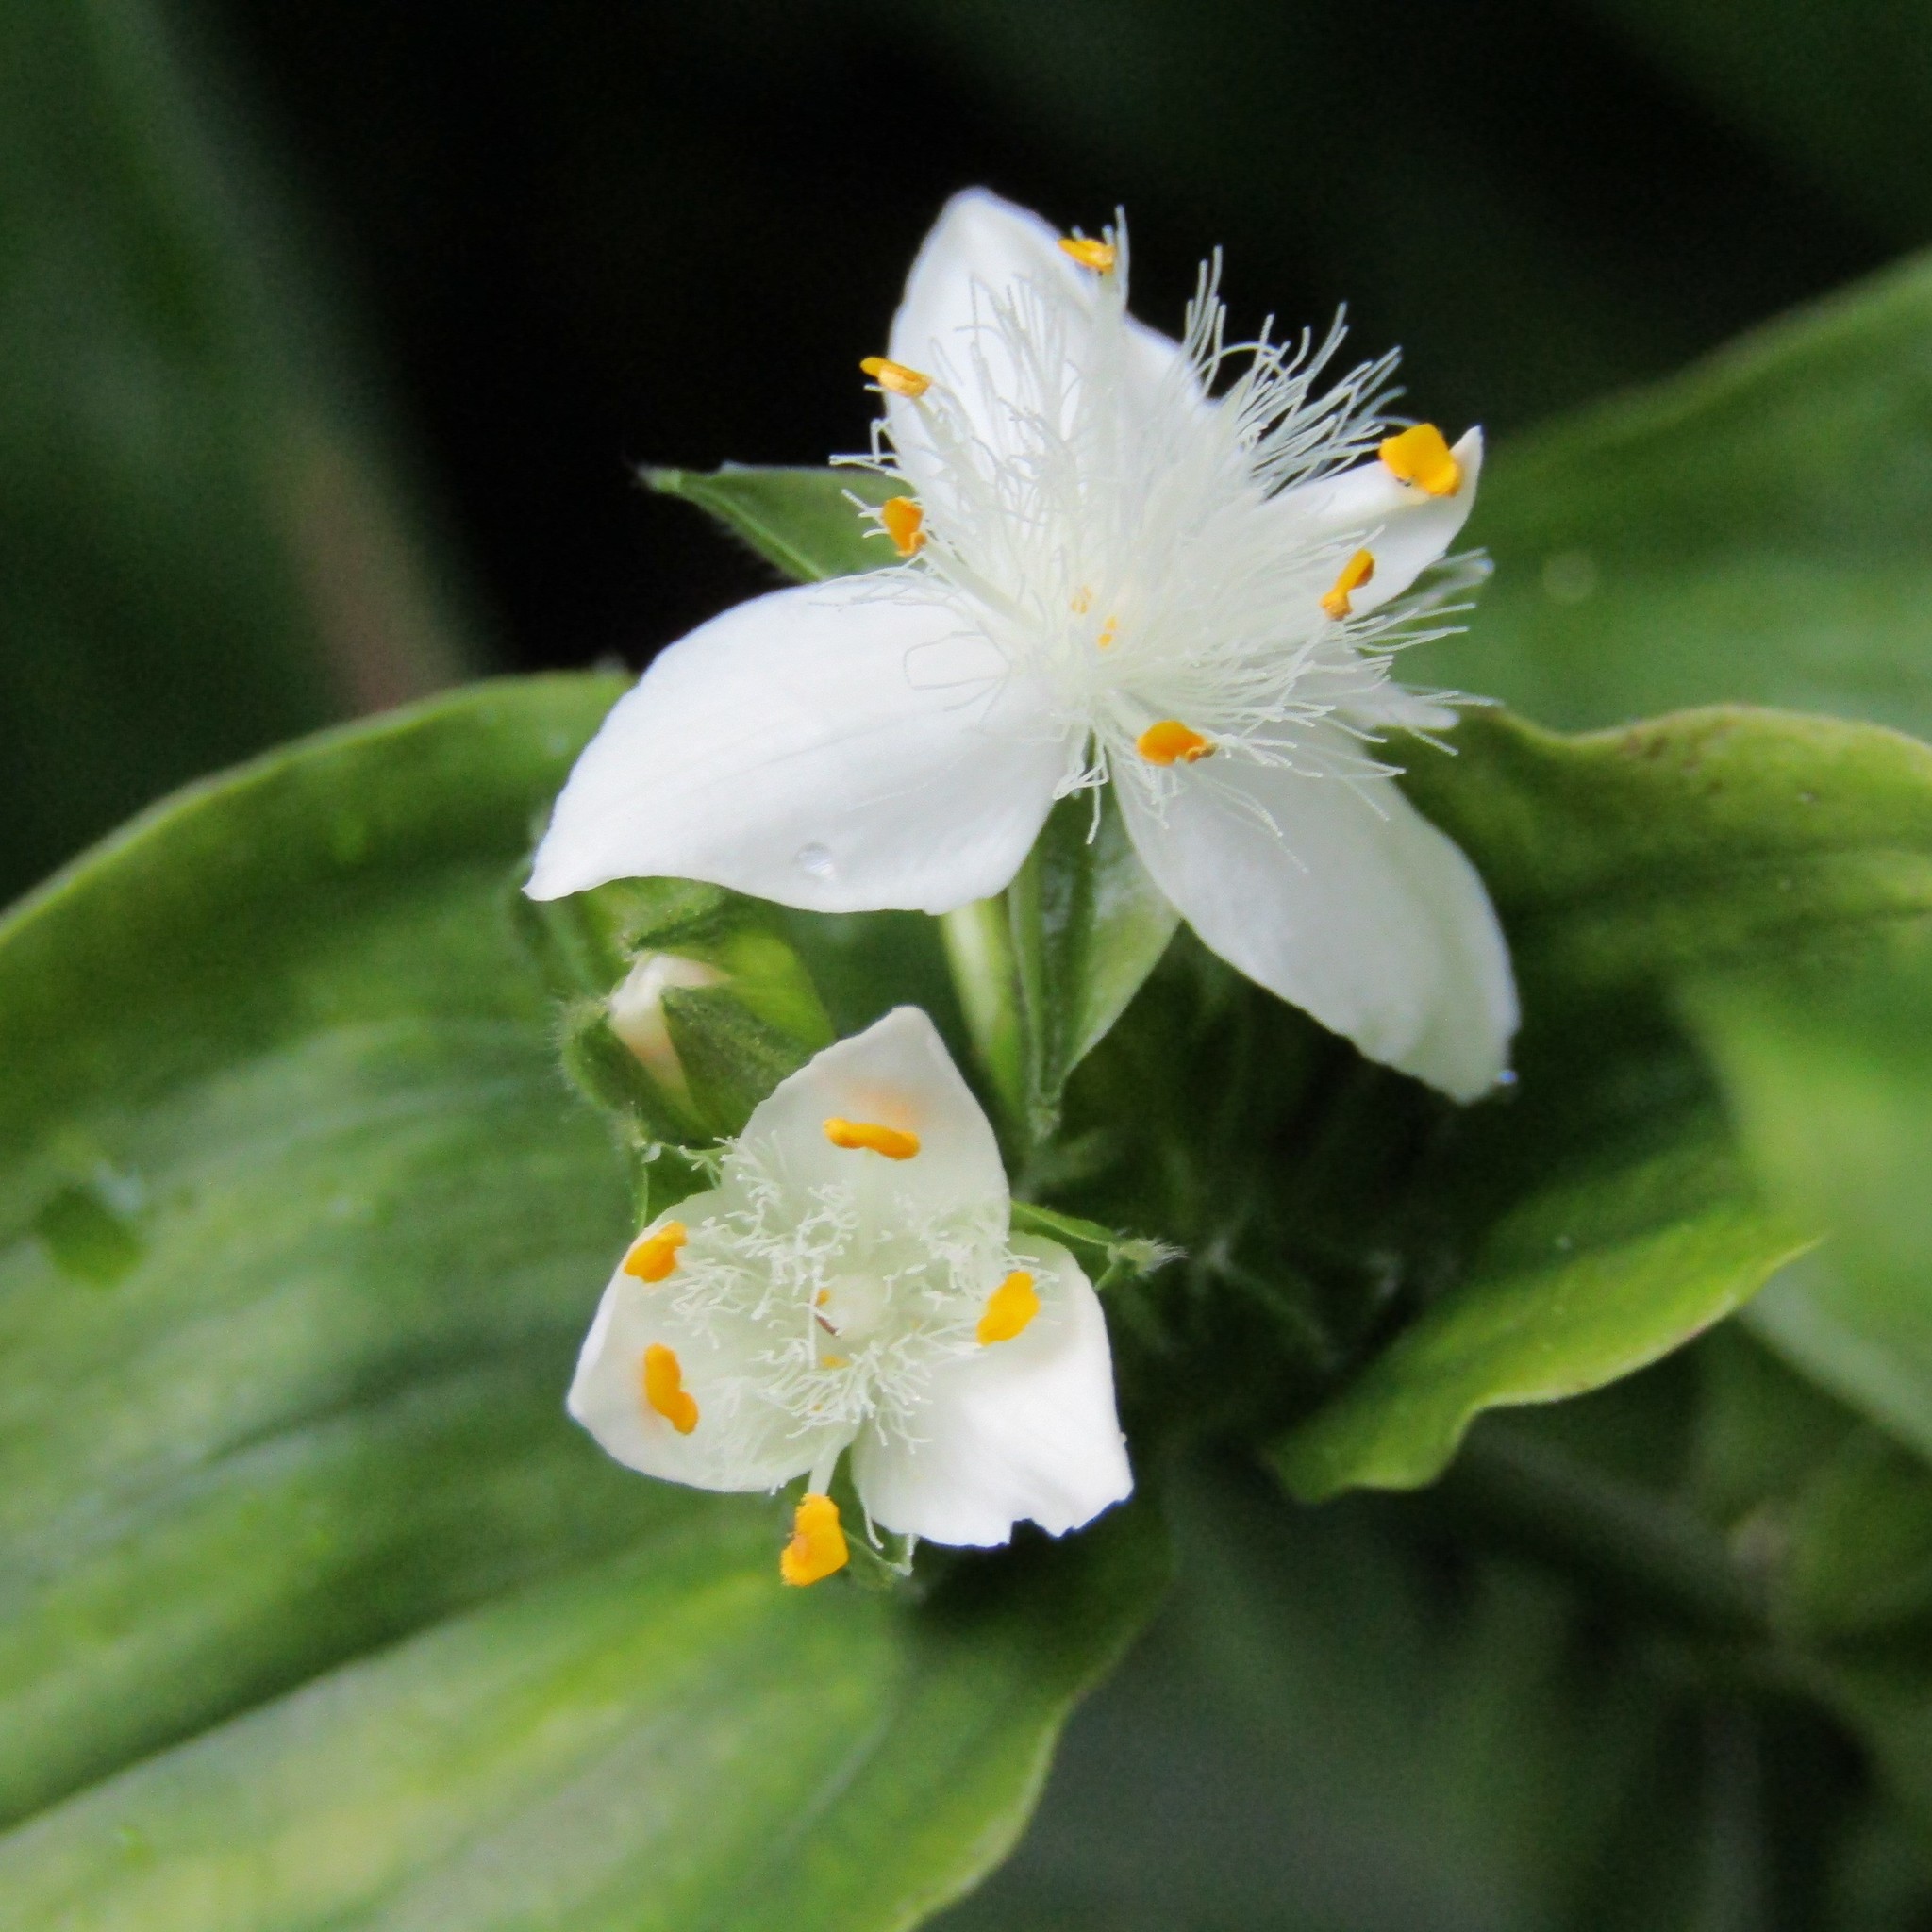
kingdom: Plantae
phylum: Tracheophyta
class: Liliopsida
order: Commelinales
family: Commelinaceae
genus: Tradescantia
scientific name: Tradescantia fluminensis
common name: Wandering-jew
